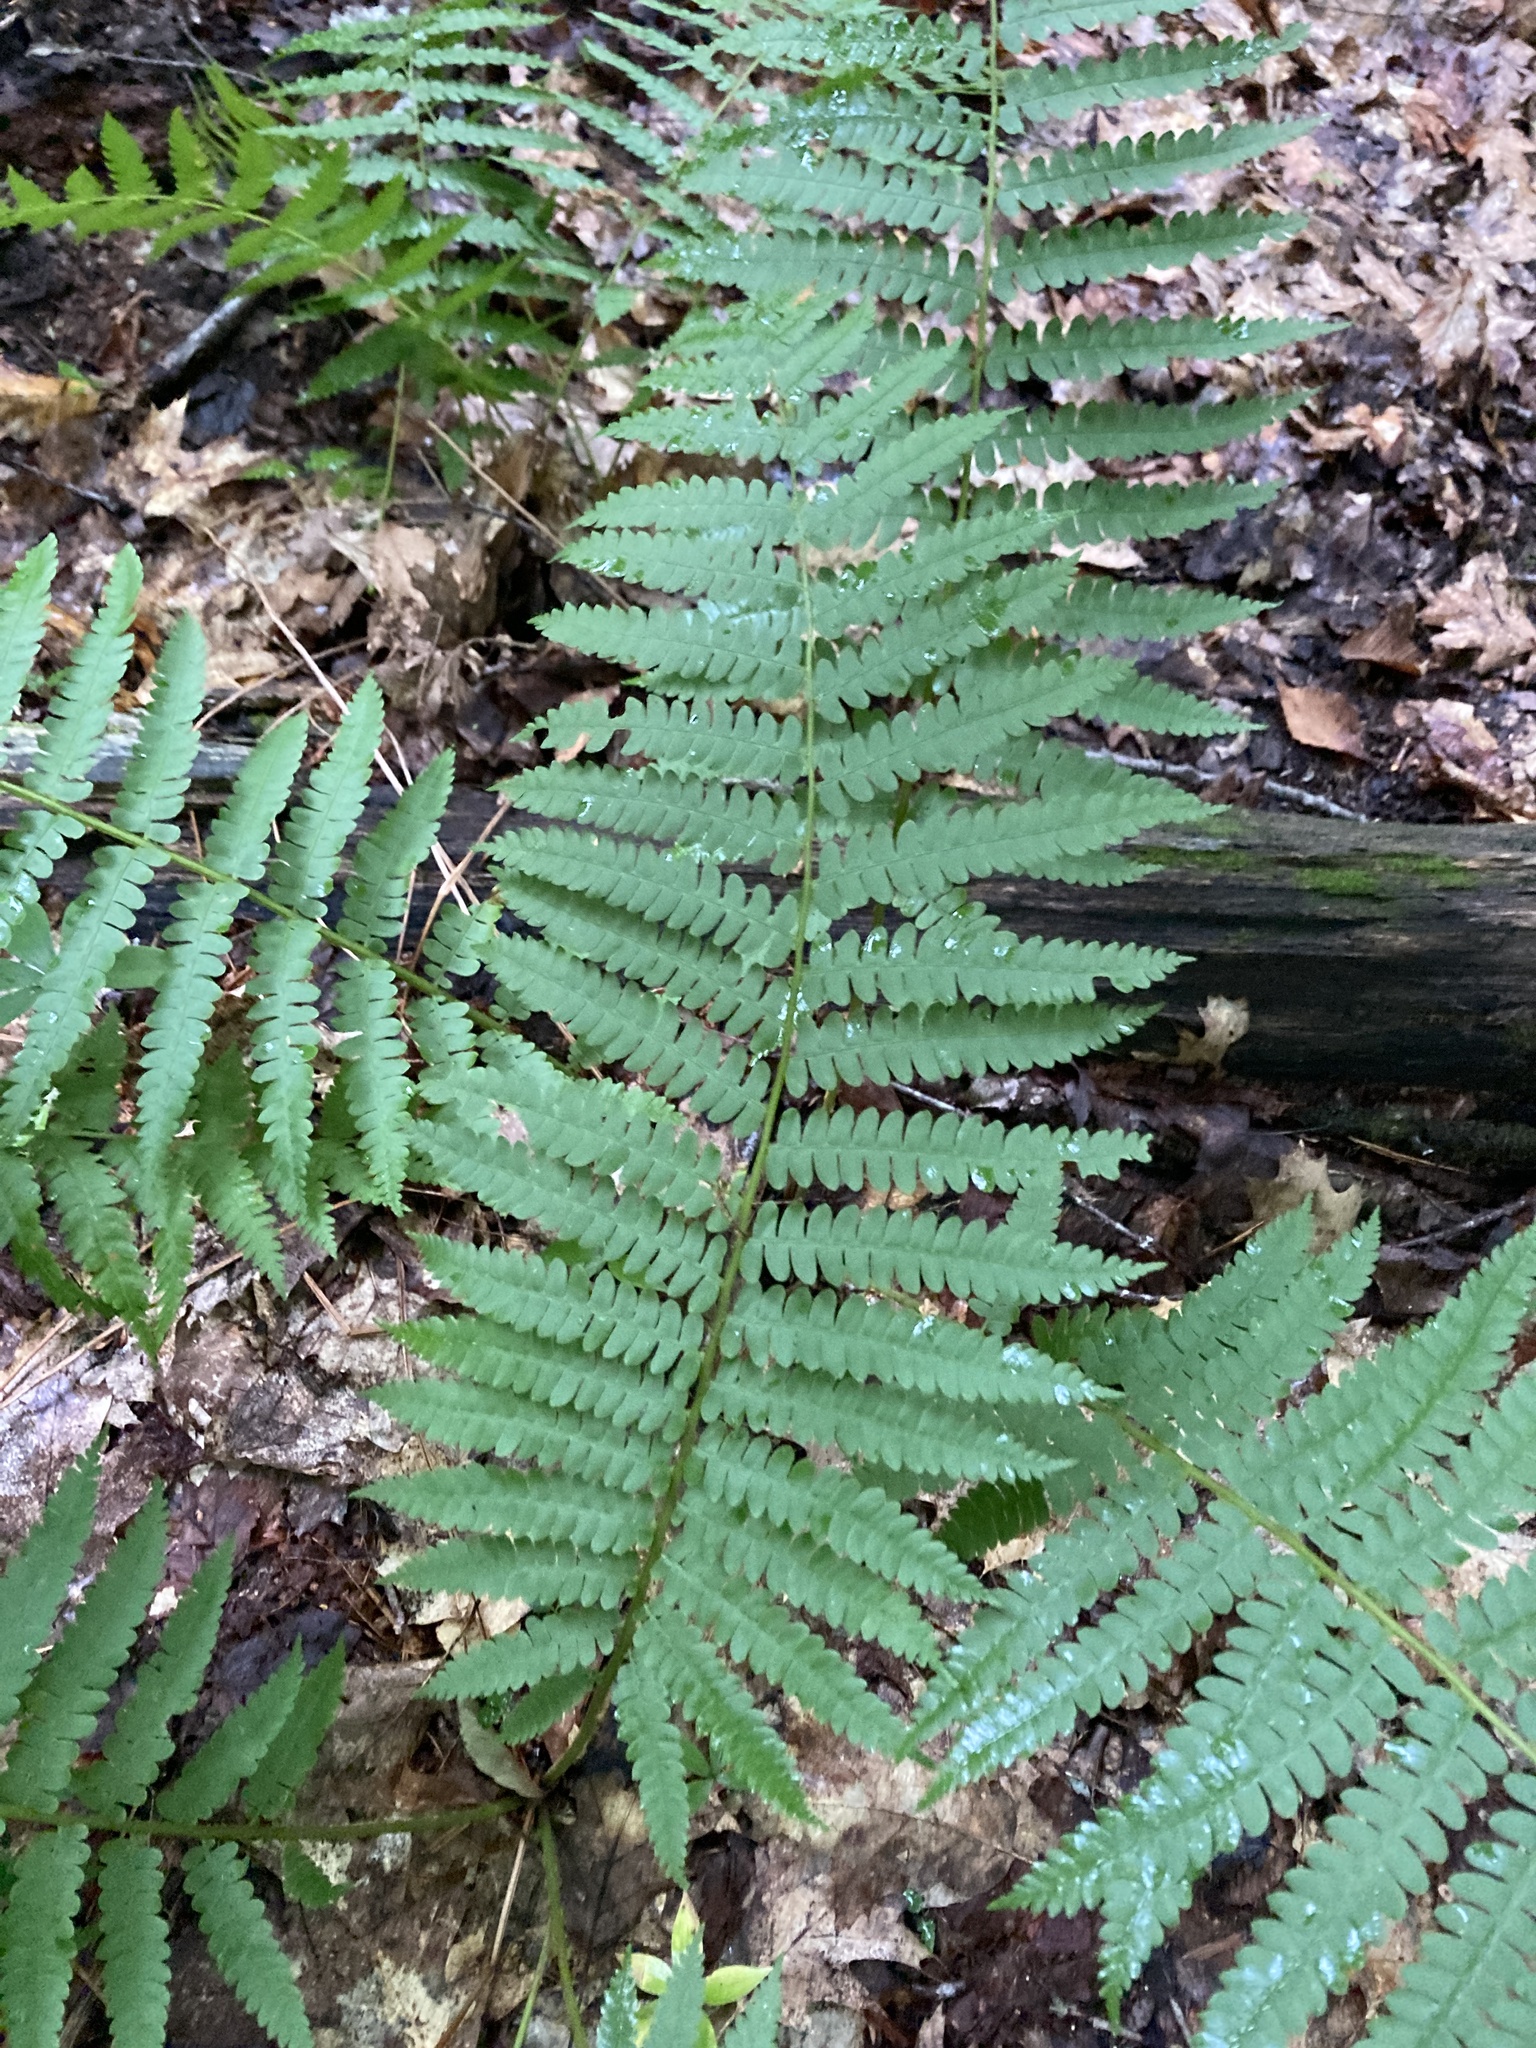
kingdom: Plantae
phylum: Tracheophyta
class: Polypodiopsida
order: Osmundales
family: Osmundaceae
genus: Osmundastrum
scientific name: Osmundastrum cinnamomeum
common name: Cinnamon fern
